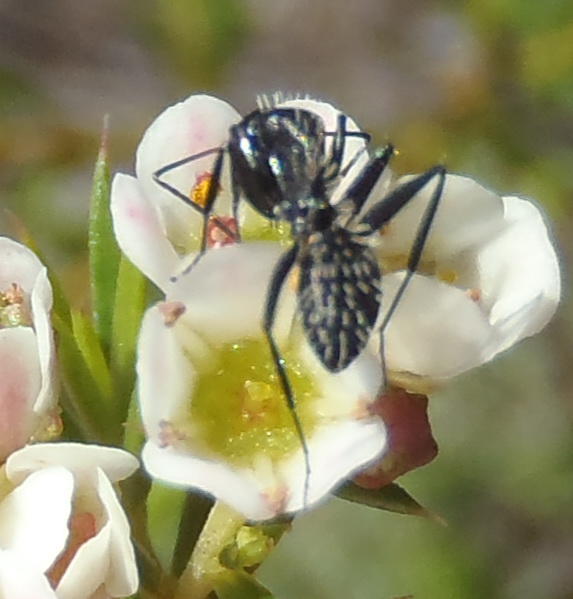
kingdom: Animalia
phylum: Arthropoda
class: Insecta
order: Hymenoptera
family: Formicidae
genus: Camponotus
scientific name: Camponotus niveosetosus
